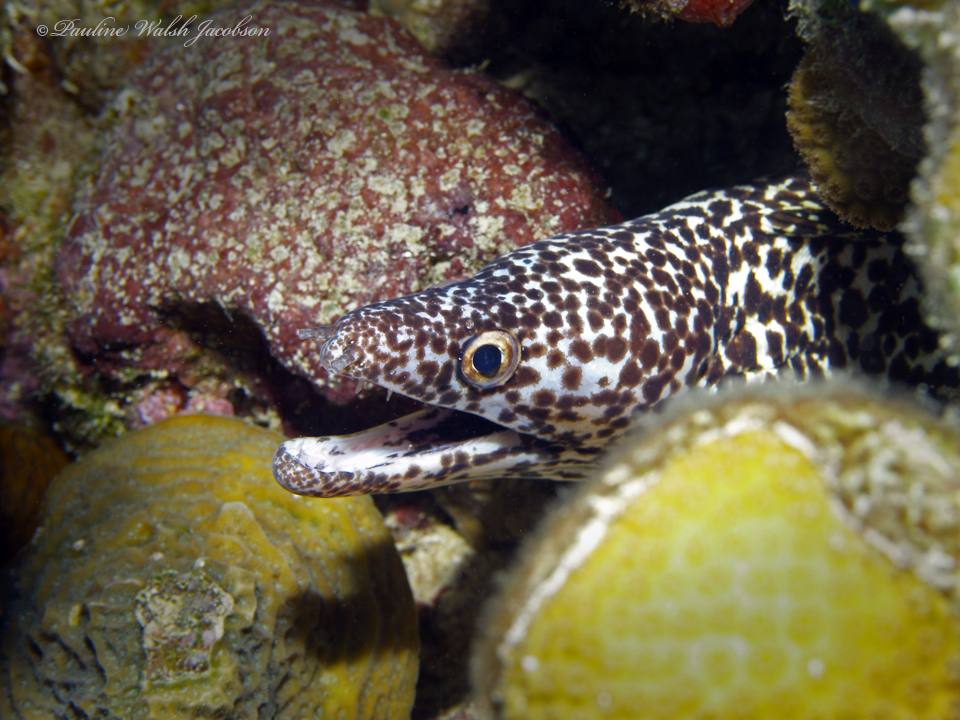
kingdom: Animalia
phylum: Chordata
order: Anguilliformes
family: Muraenidae
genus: Gymnothorax
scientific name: Gymnothorax moringa
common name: Spotted moray
